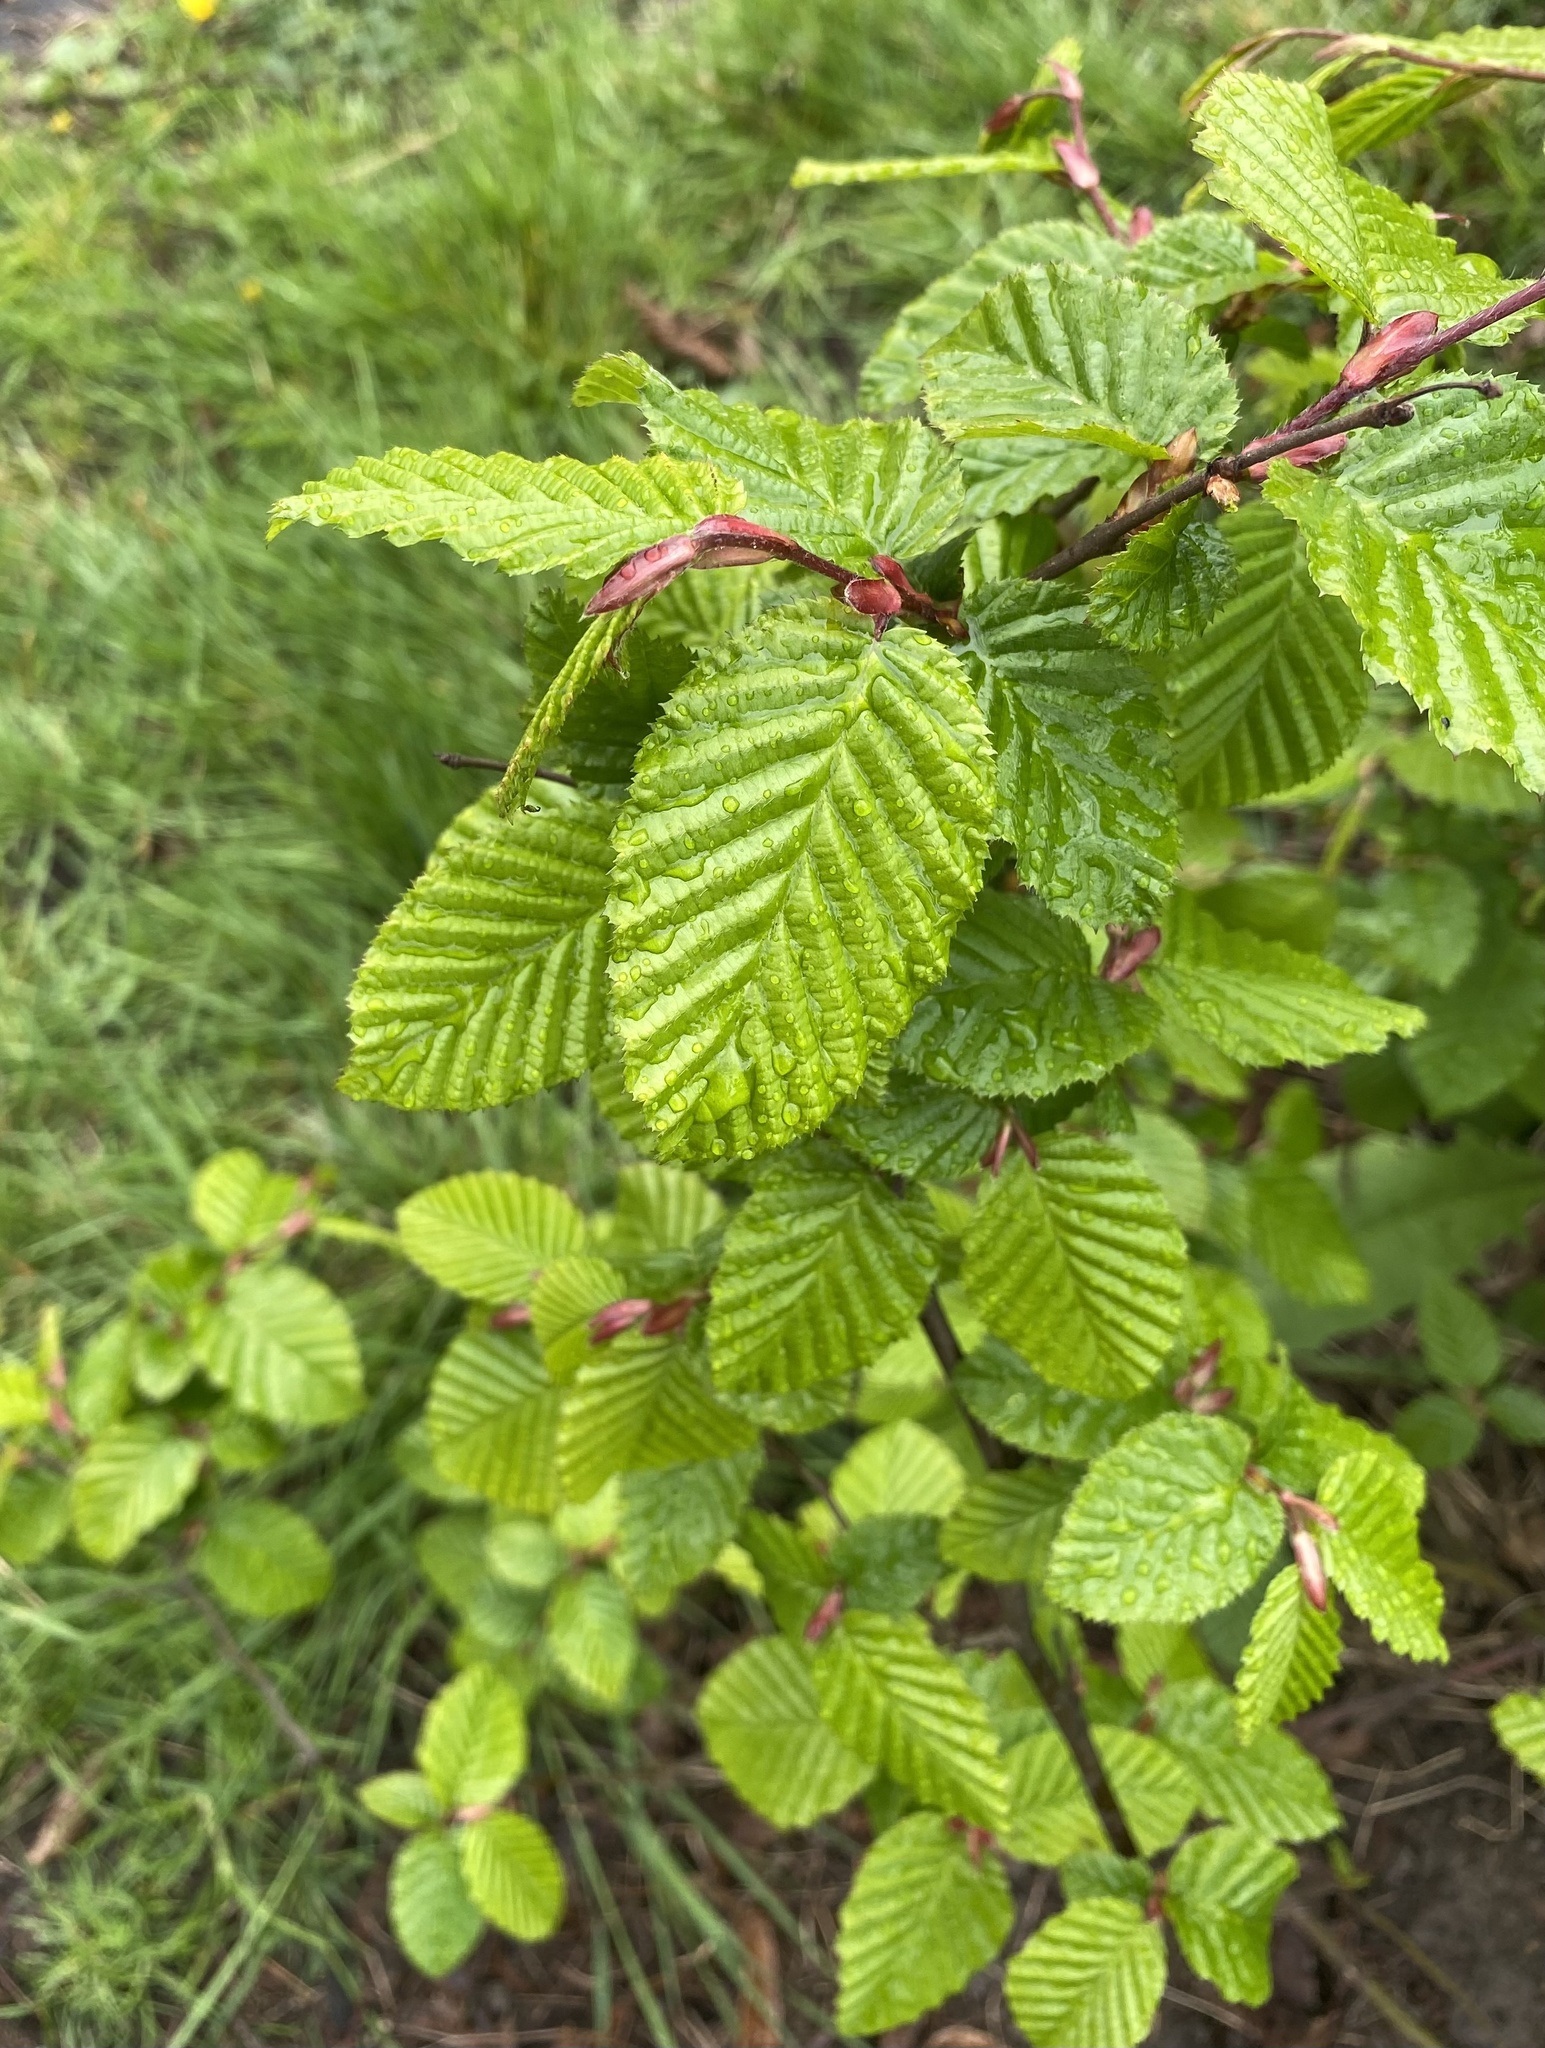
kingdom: Plantae
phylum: Tracheophyta
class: Magnoliopsida
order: Fagales
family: Betulaceae
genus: Carpinus
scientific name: Carpinus betulus
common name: Hornbeam
